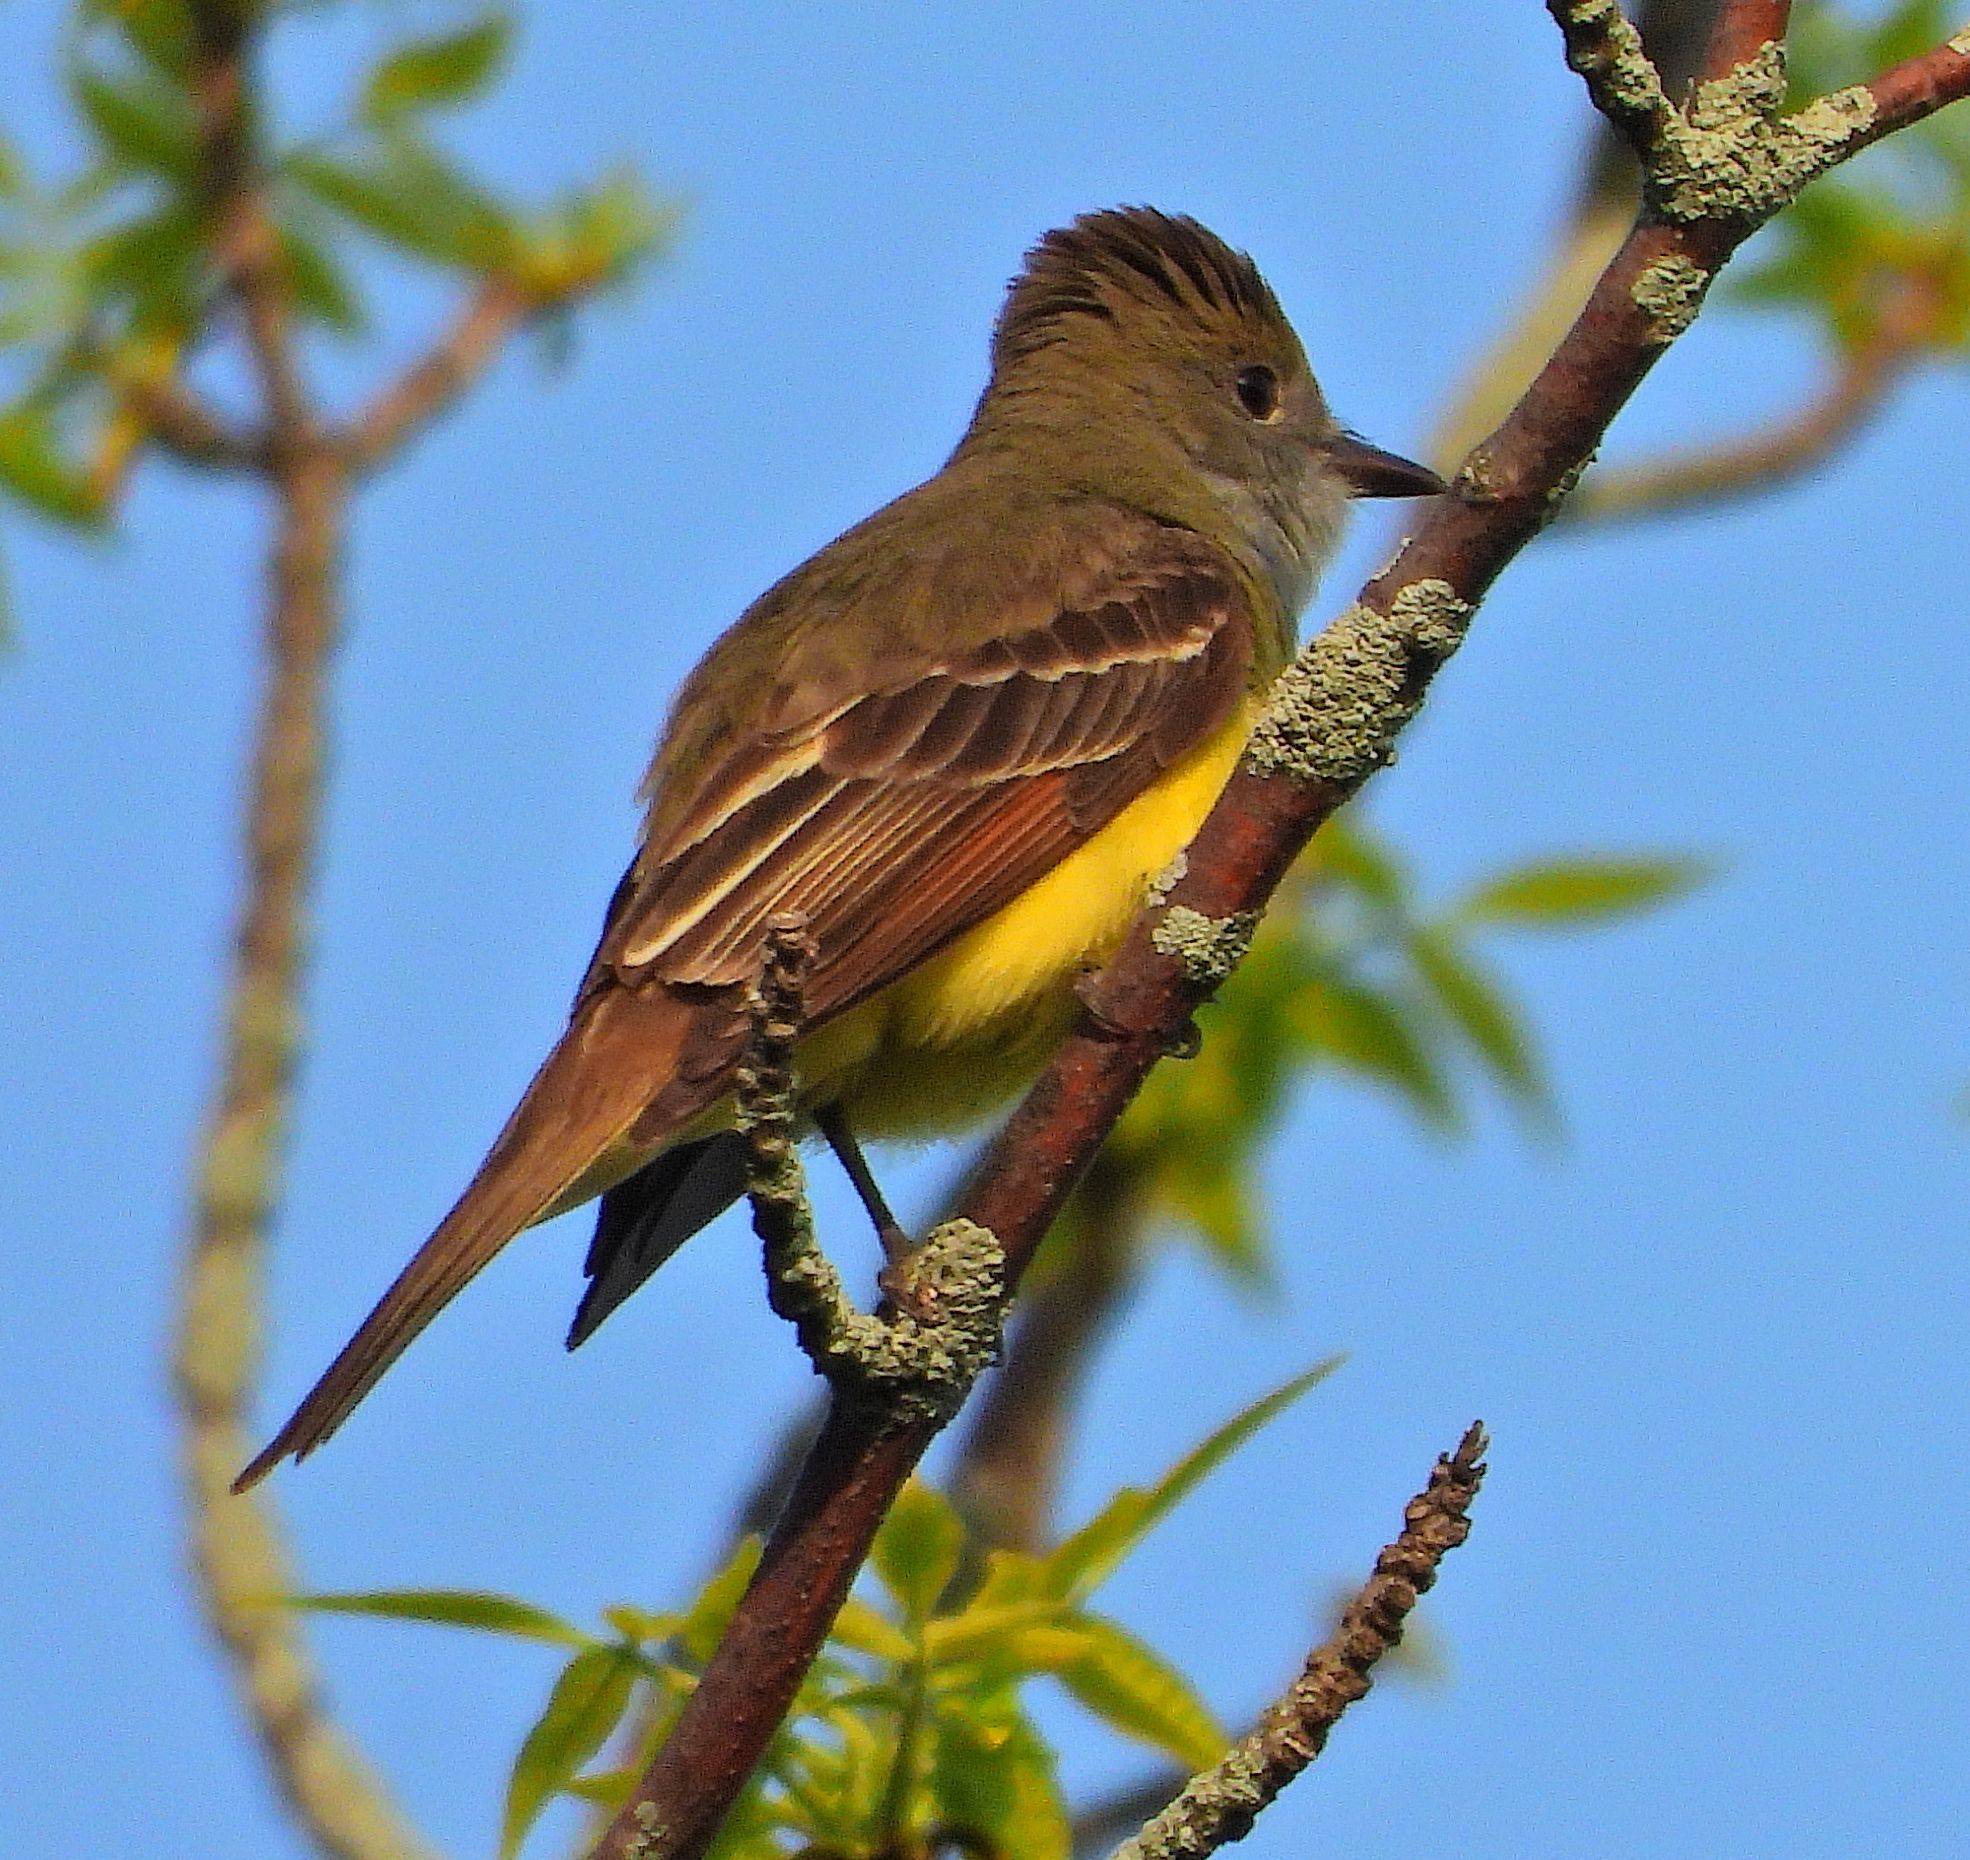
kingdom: Animalia
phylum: Chordata
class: Aves
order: Passeriformes
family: Tyrannidae
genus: Myiarchus
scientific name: Myiarchus crinitus
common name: Great crested flycatcher
